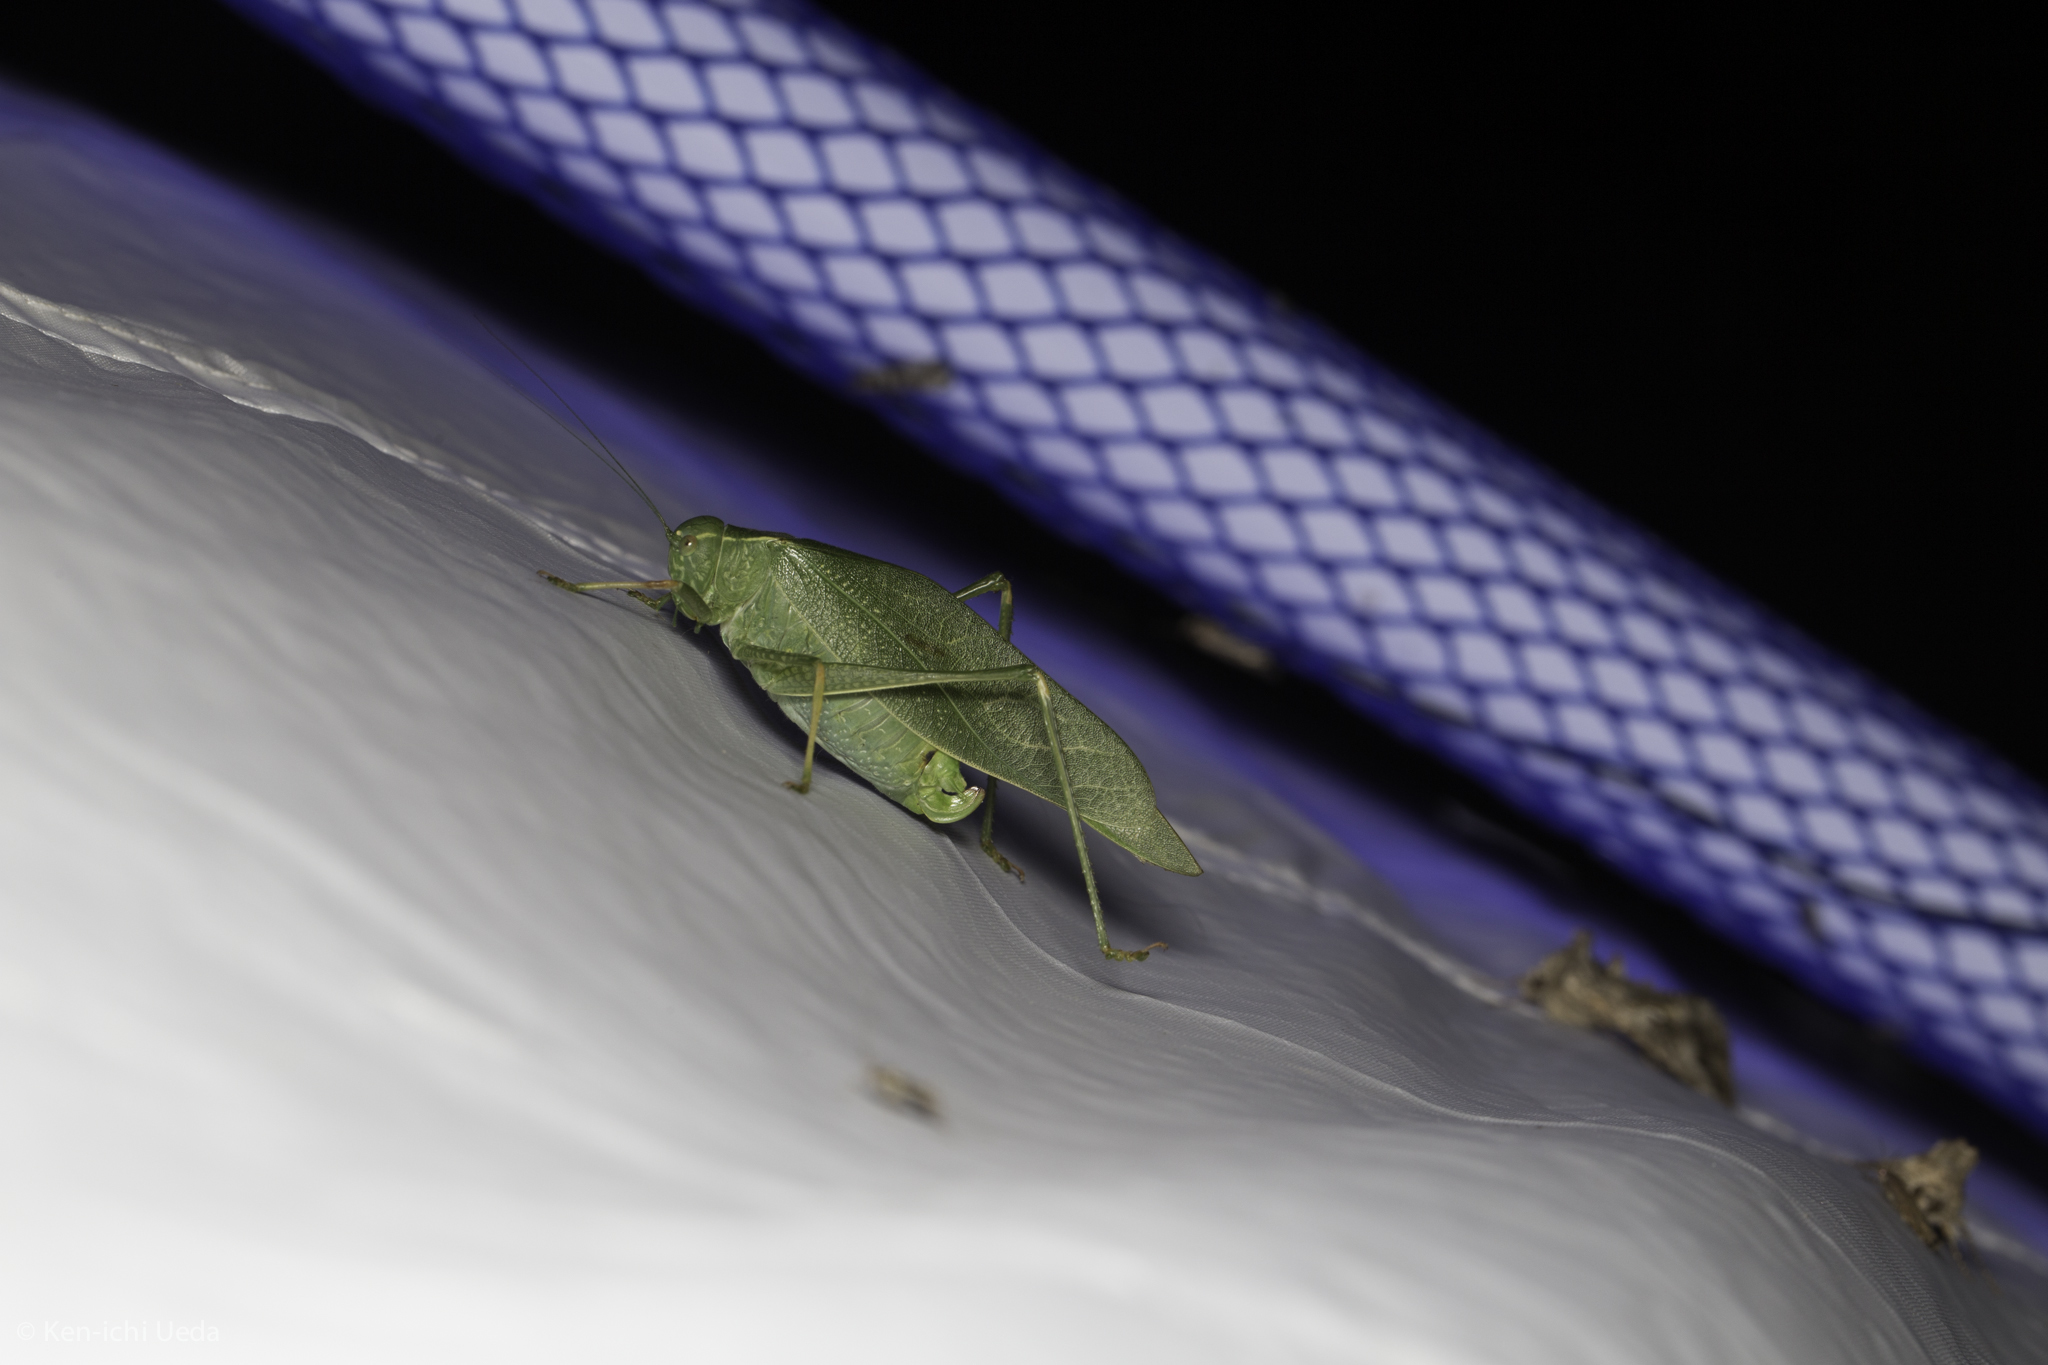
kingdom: Animalia
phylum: Arthropoda
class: Insecta
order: Orthoptera
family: Tettigoniidae
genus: Microcentrum
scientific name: Microcentrum californicum
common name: California angle-wing
